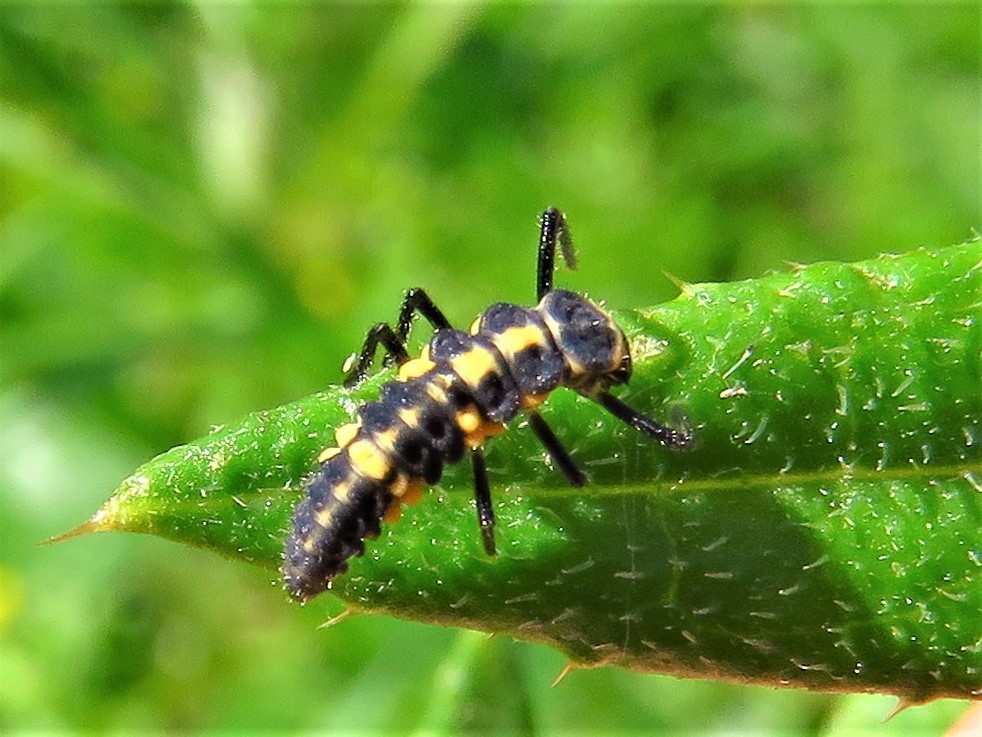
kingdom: Animalia
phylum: Arthropoda
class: Insecta
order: Coleoptera
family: Coccinellidae
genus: Coleomegilla
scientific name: Coleomegilla maculata
